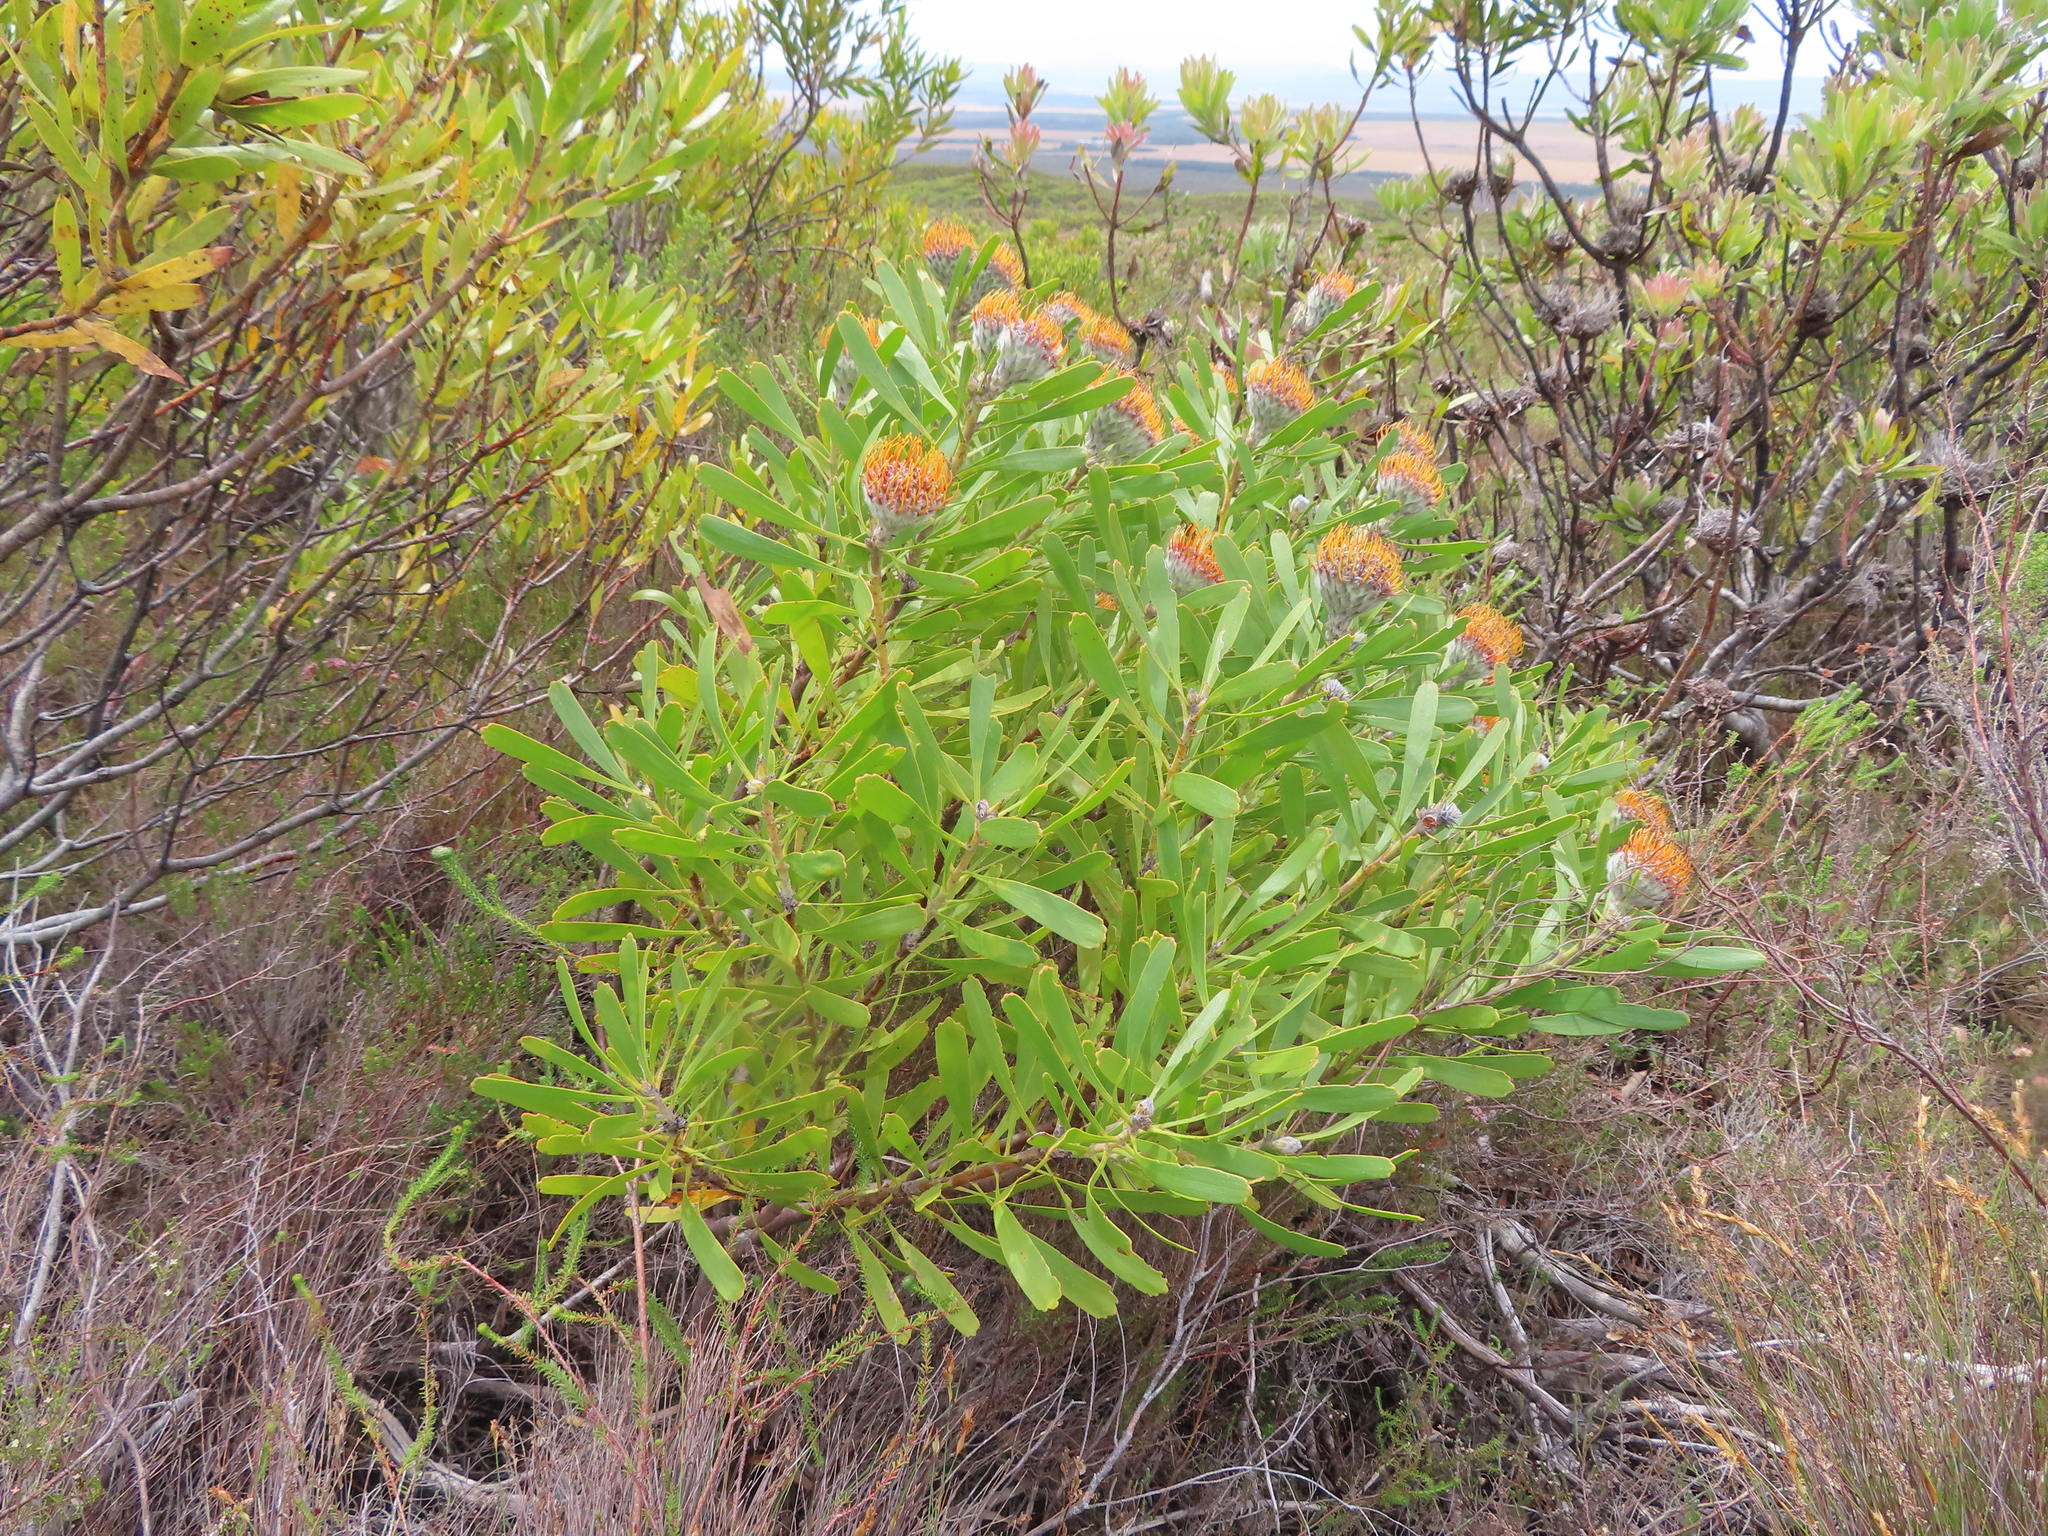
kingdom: Plantae
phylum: Tracheophyta
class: Magnoliopsida
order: Proteales
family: Proteaceae
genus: Leucospermum
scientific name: Leucospermum truncatum
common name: Limestone pincushion
